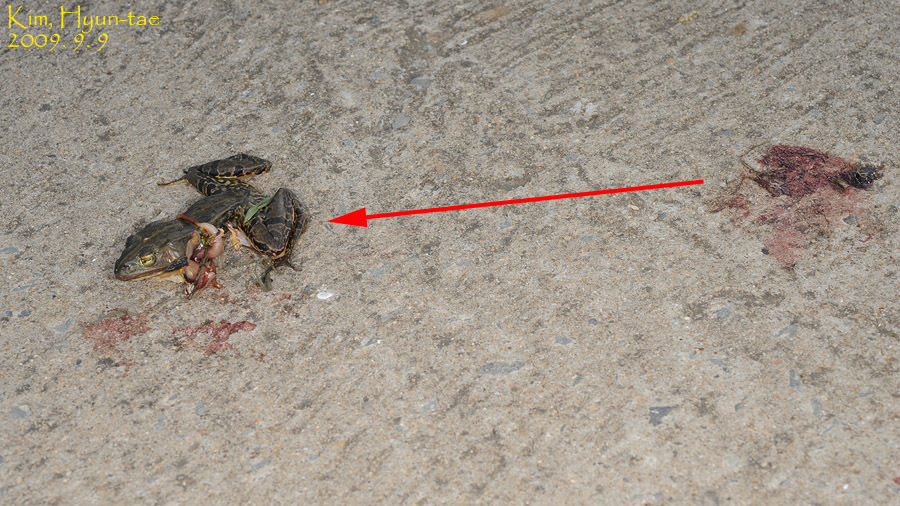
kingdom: Animalia
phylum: Chordata
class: Amphibia
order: Anura
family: Ranidae
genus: Pelophylax
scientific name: Pelophylax nigromaculatus
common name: Black-spotted pond frog
